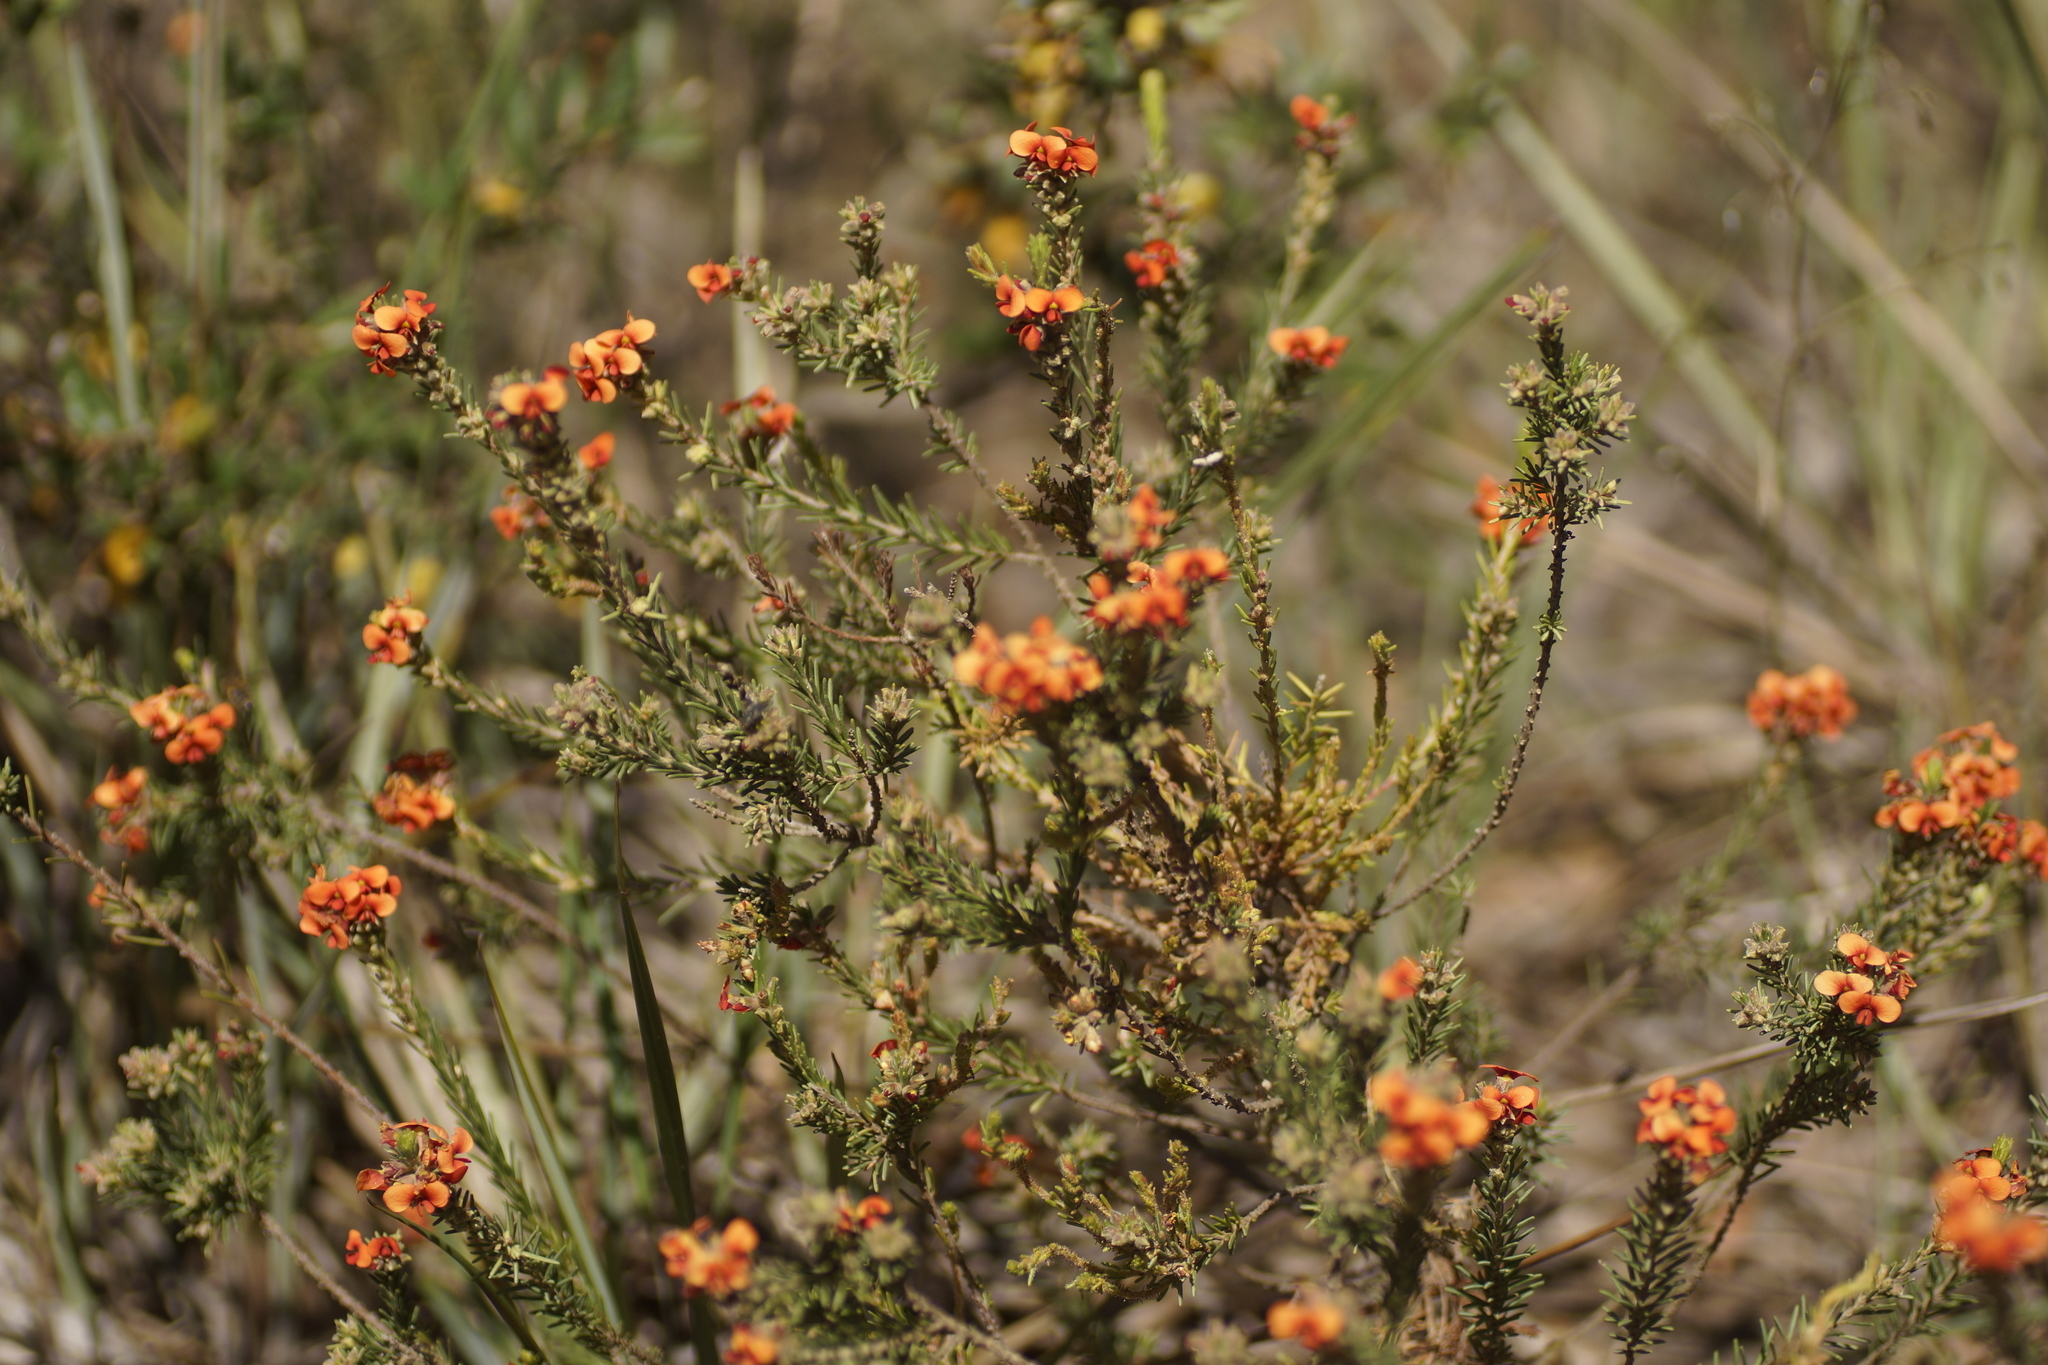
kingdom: Plantae
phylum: Tracheophyta
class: Magnoliopsida
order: Fabales
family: Fabaceae
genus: Dillwynia
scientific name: Dillwynia sericea
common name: Showy parrot-pea
